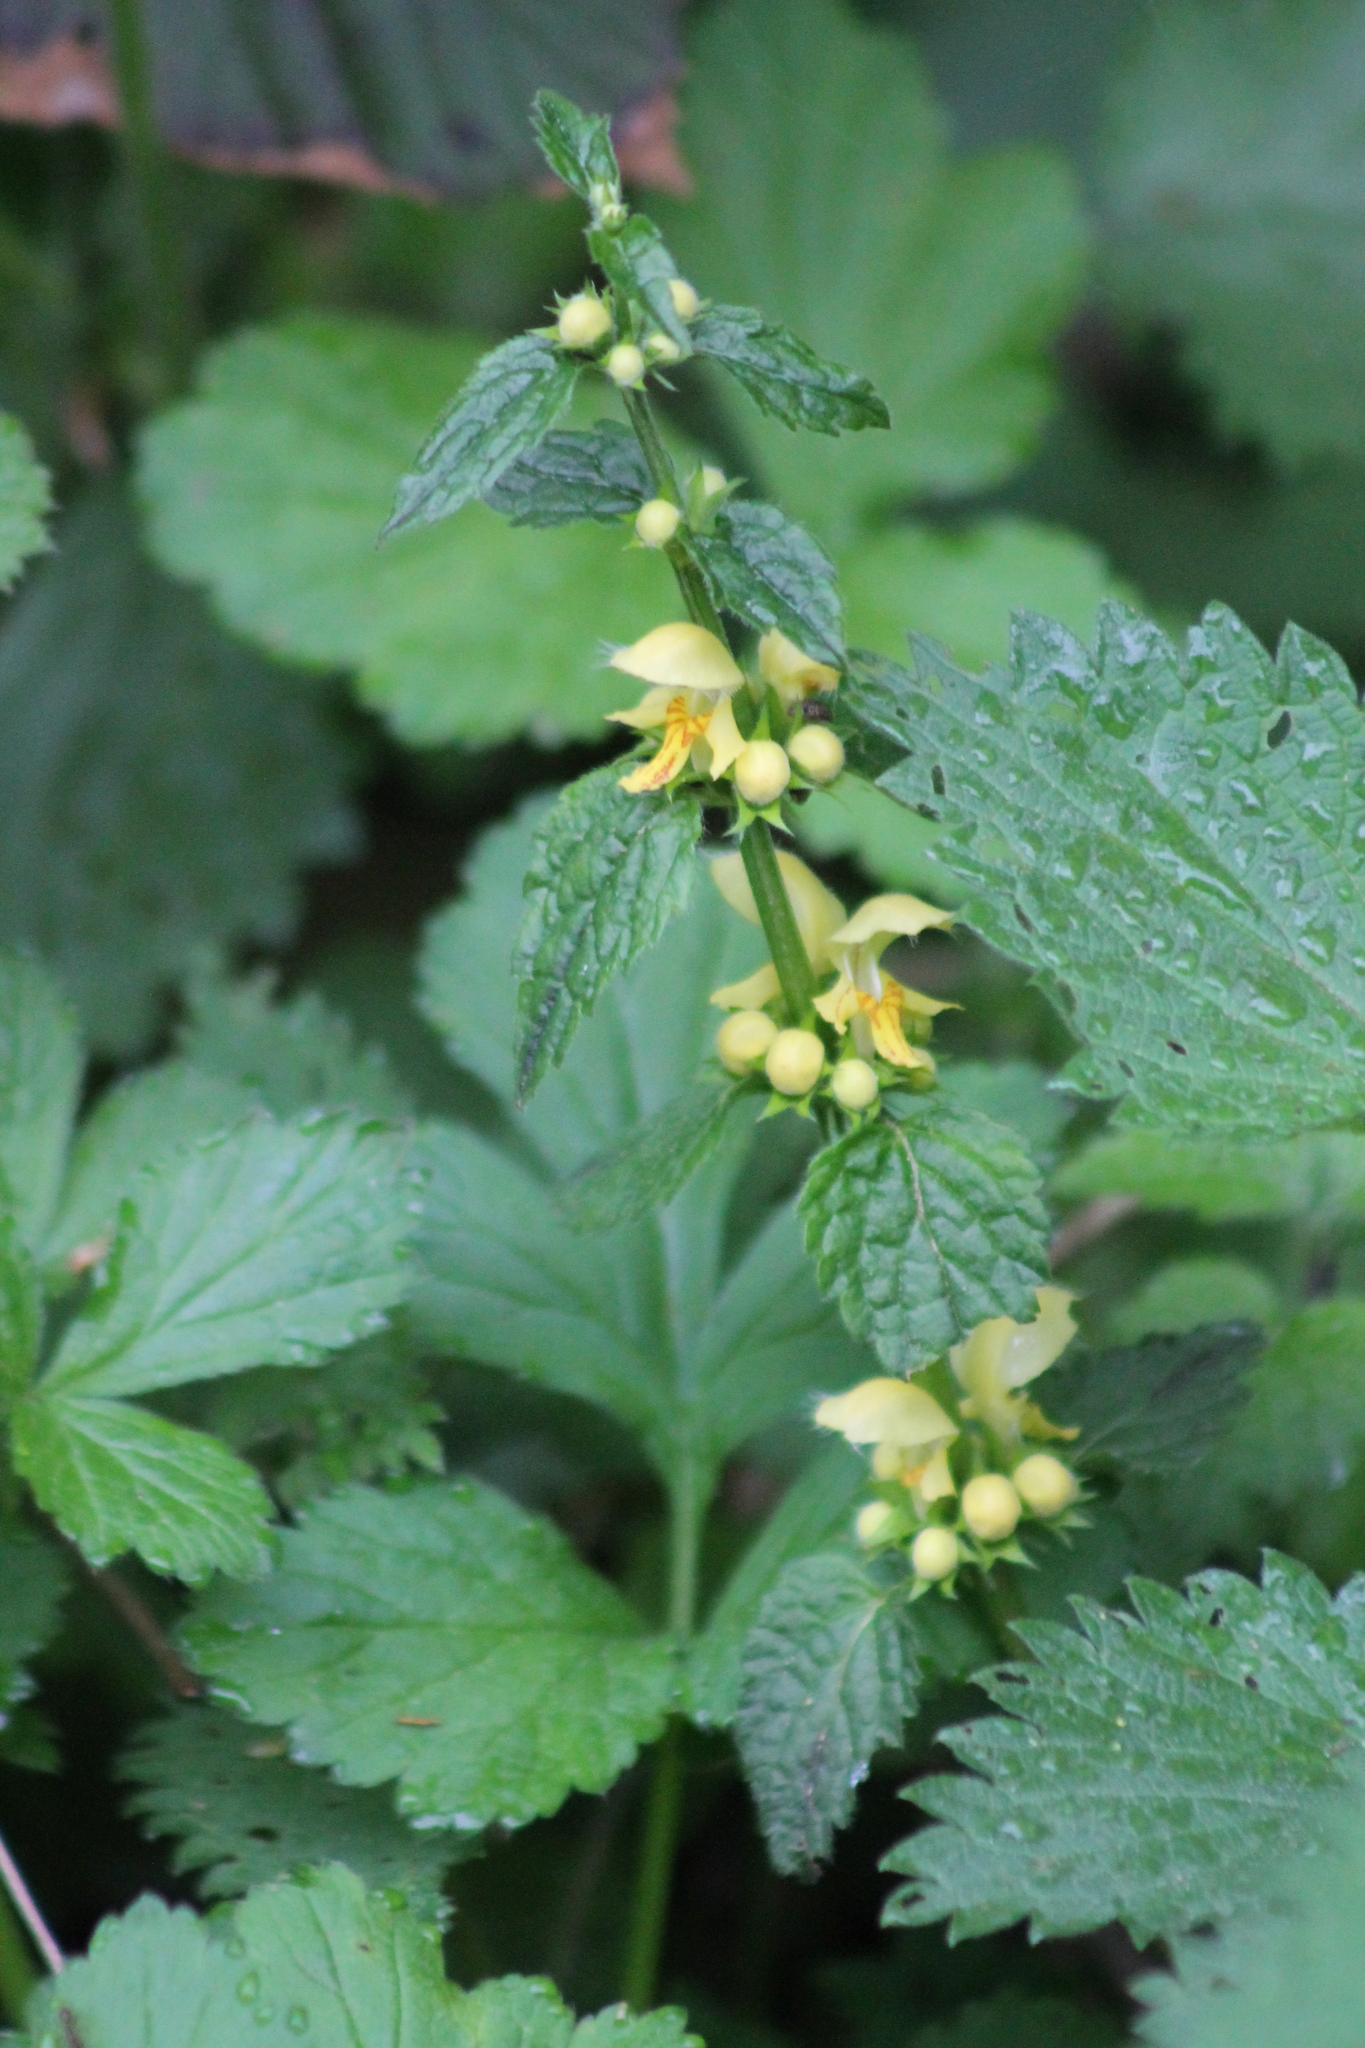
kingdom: Plantae
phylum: Tracheophyta
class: Magnoliopsida
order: Lamiales
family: Lamiaceae
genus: Lamium
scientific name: Lamium galeobdolon
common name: Yellow archangel
